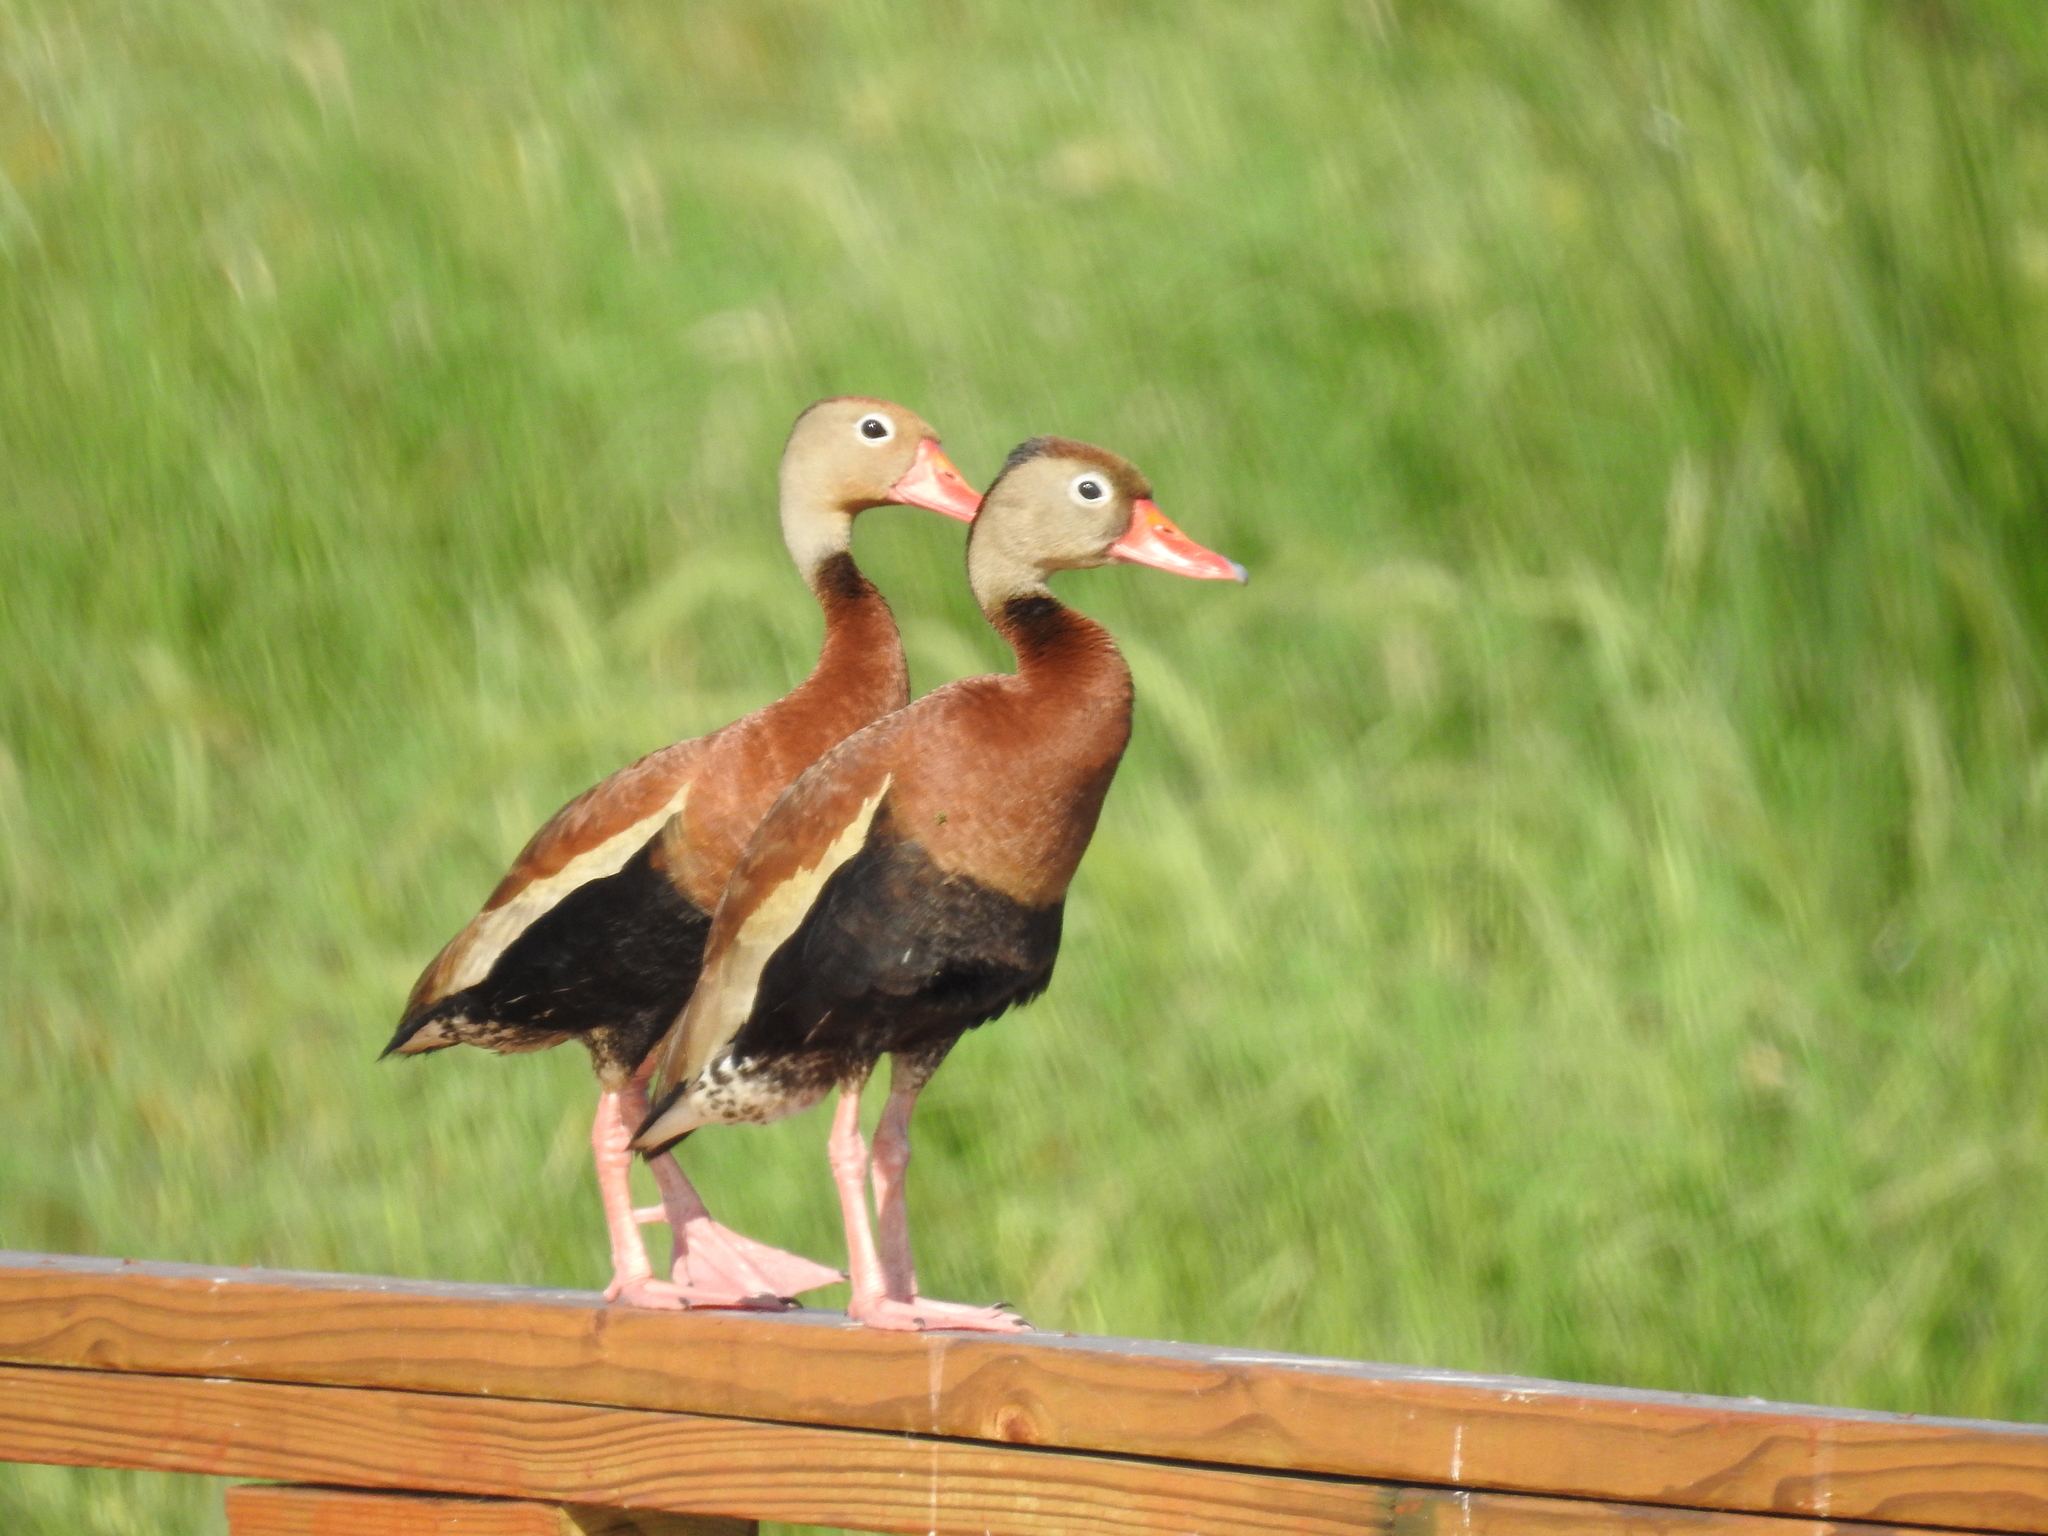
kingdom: Animalia
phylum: Chordata
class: Aves
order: Anseriformes
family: Anatidae
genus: Dendrocygna
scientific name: Dendrocygna autumnalis
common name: Black-bellied whistling duck
